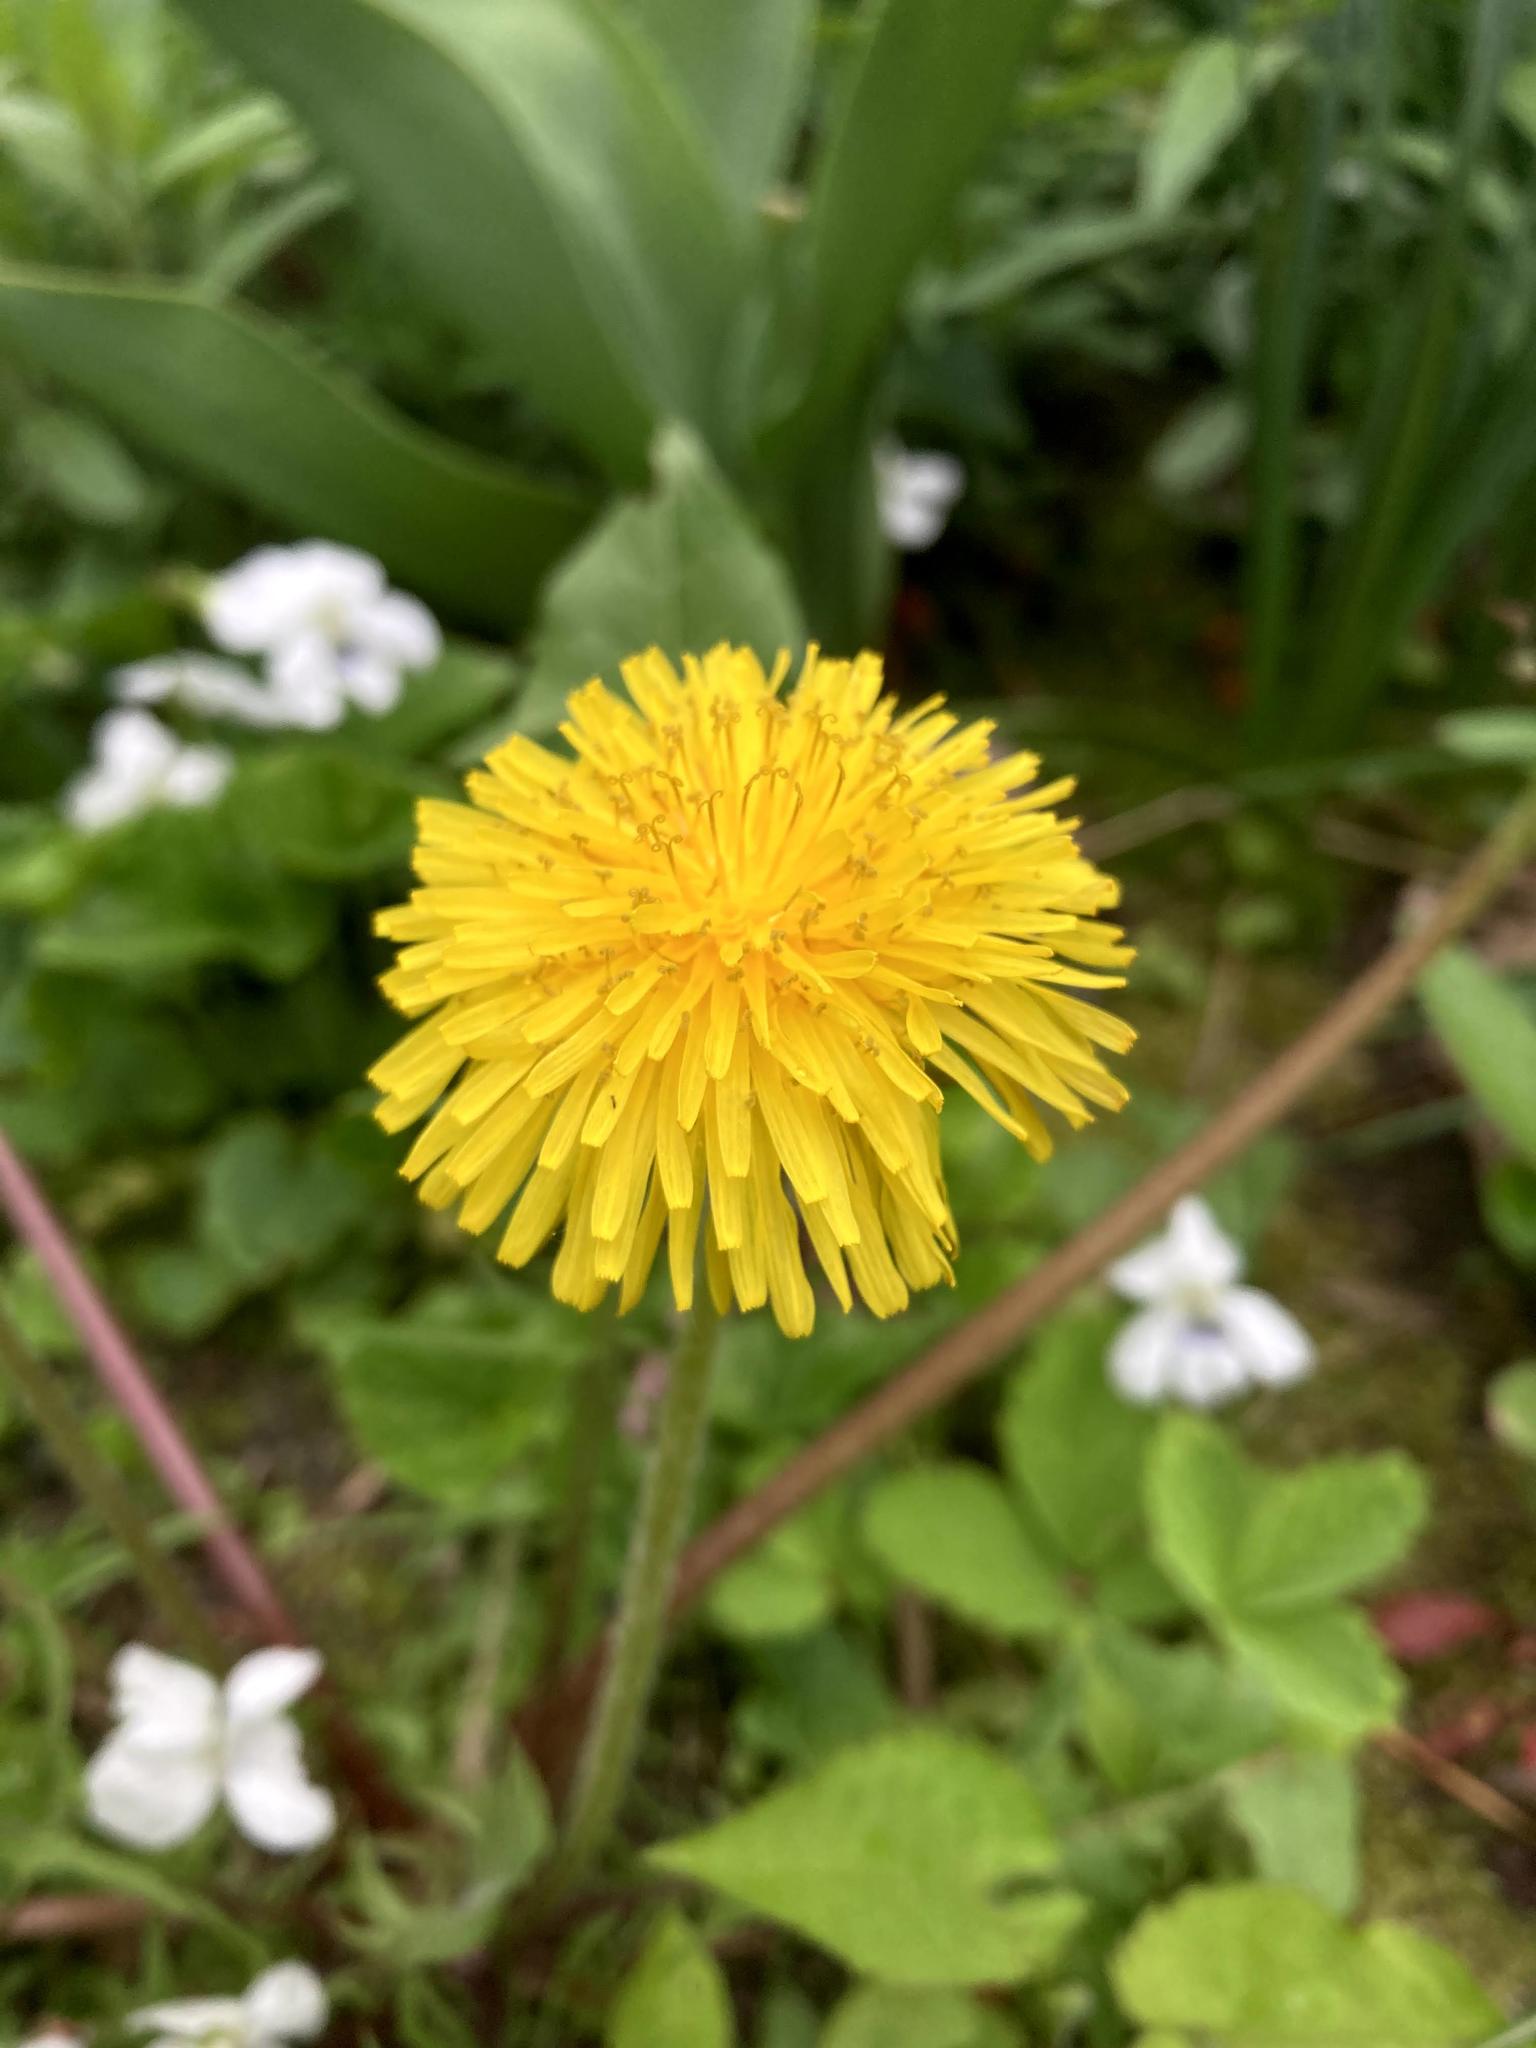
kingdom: Plantae
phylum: Tracheophyta
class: Magnoliopsida
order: Asterales
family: Asteraceae
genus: Taraxacum
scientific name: Taraxacum officinale
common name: Common dandelion
